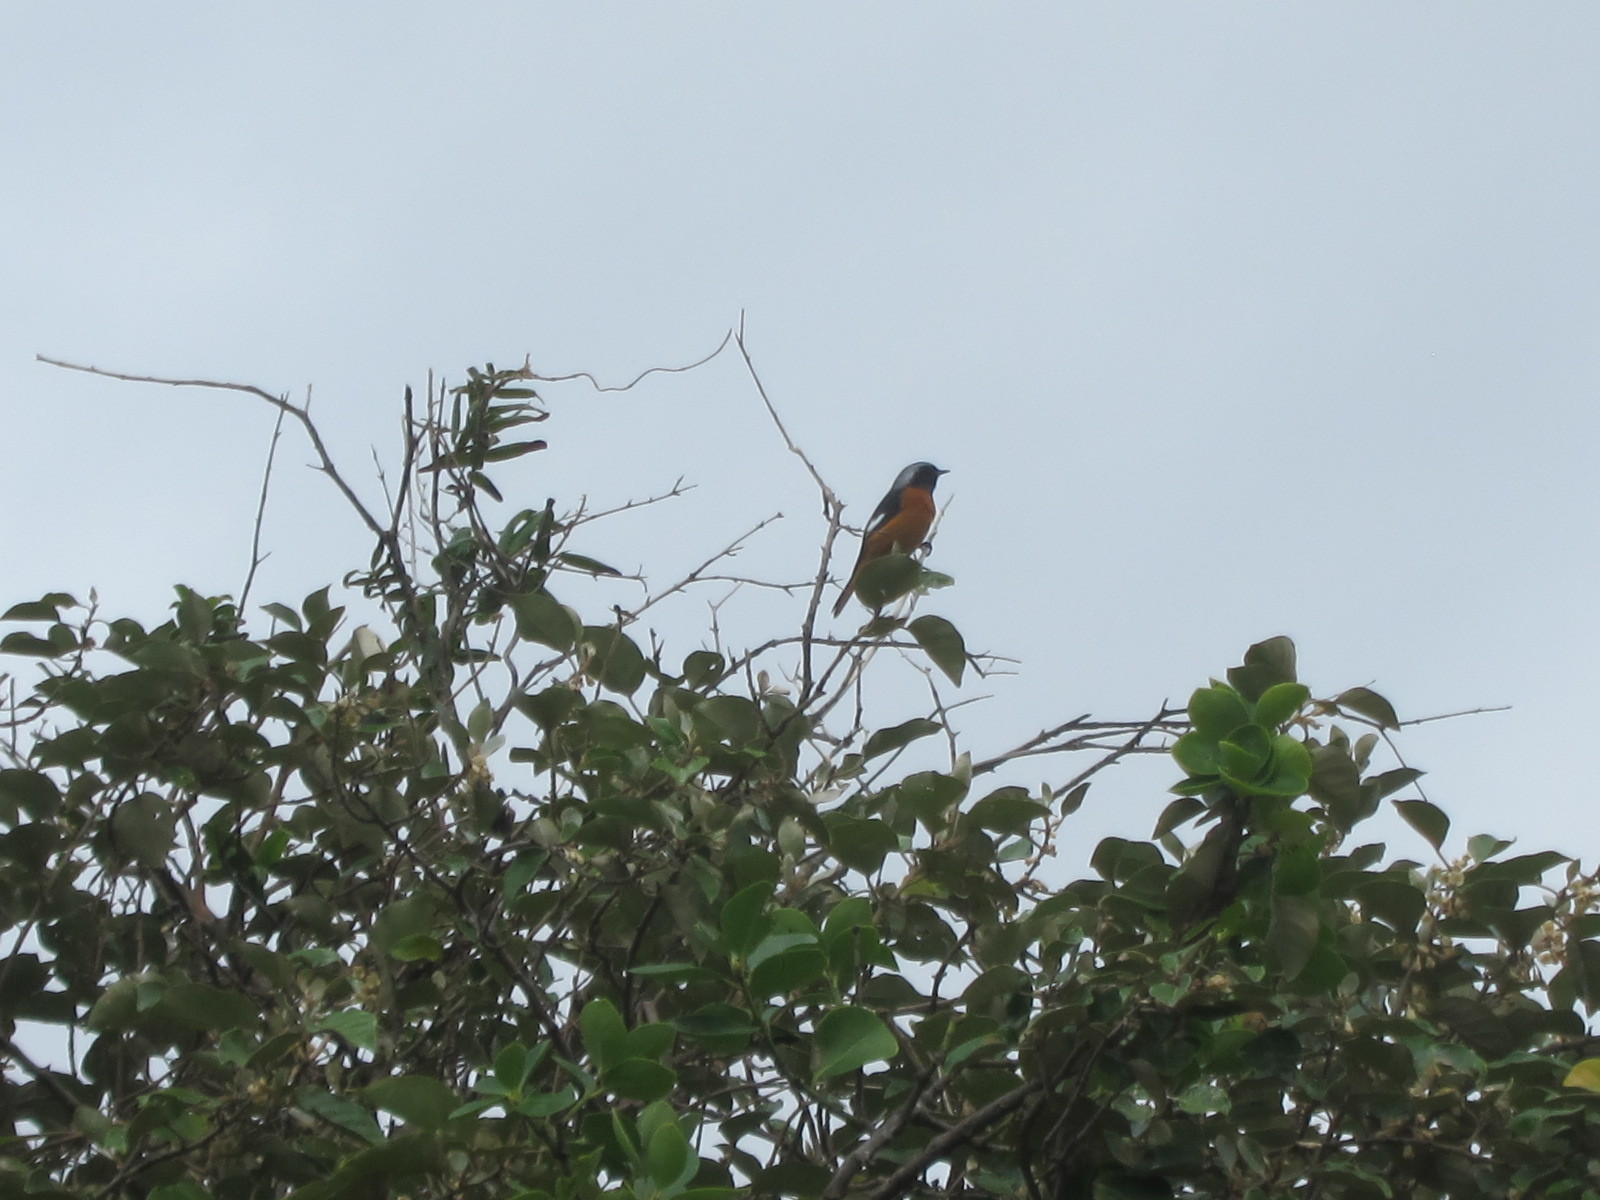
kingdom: Animalia
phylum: Chordata
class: Aves
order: Passeriformes
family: Muscicapidae
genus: Phoenicurus
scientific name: Phoenicurus auroreus
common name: Daurian redstart
